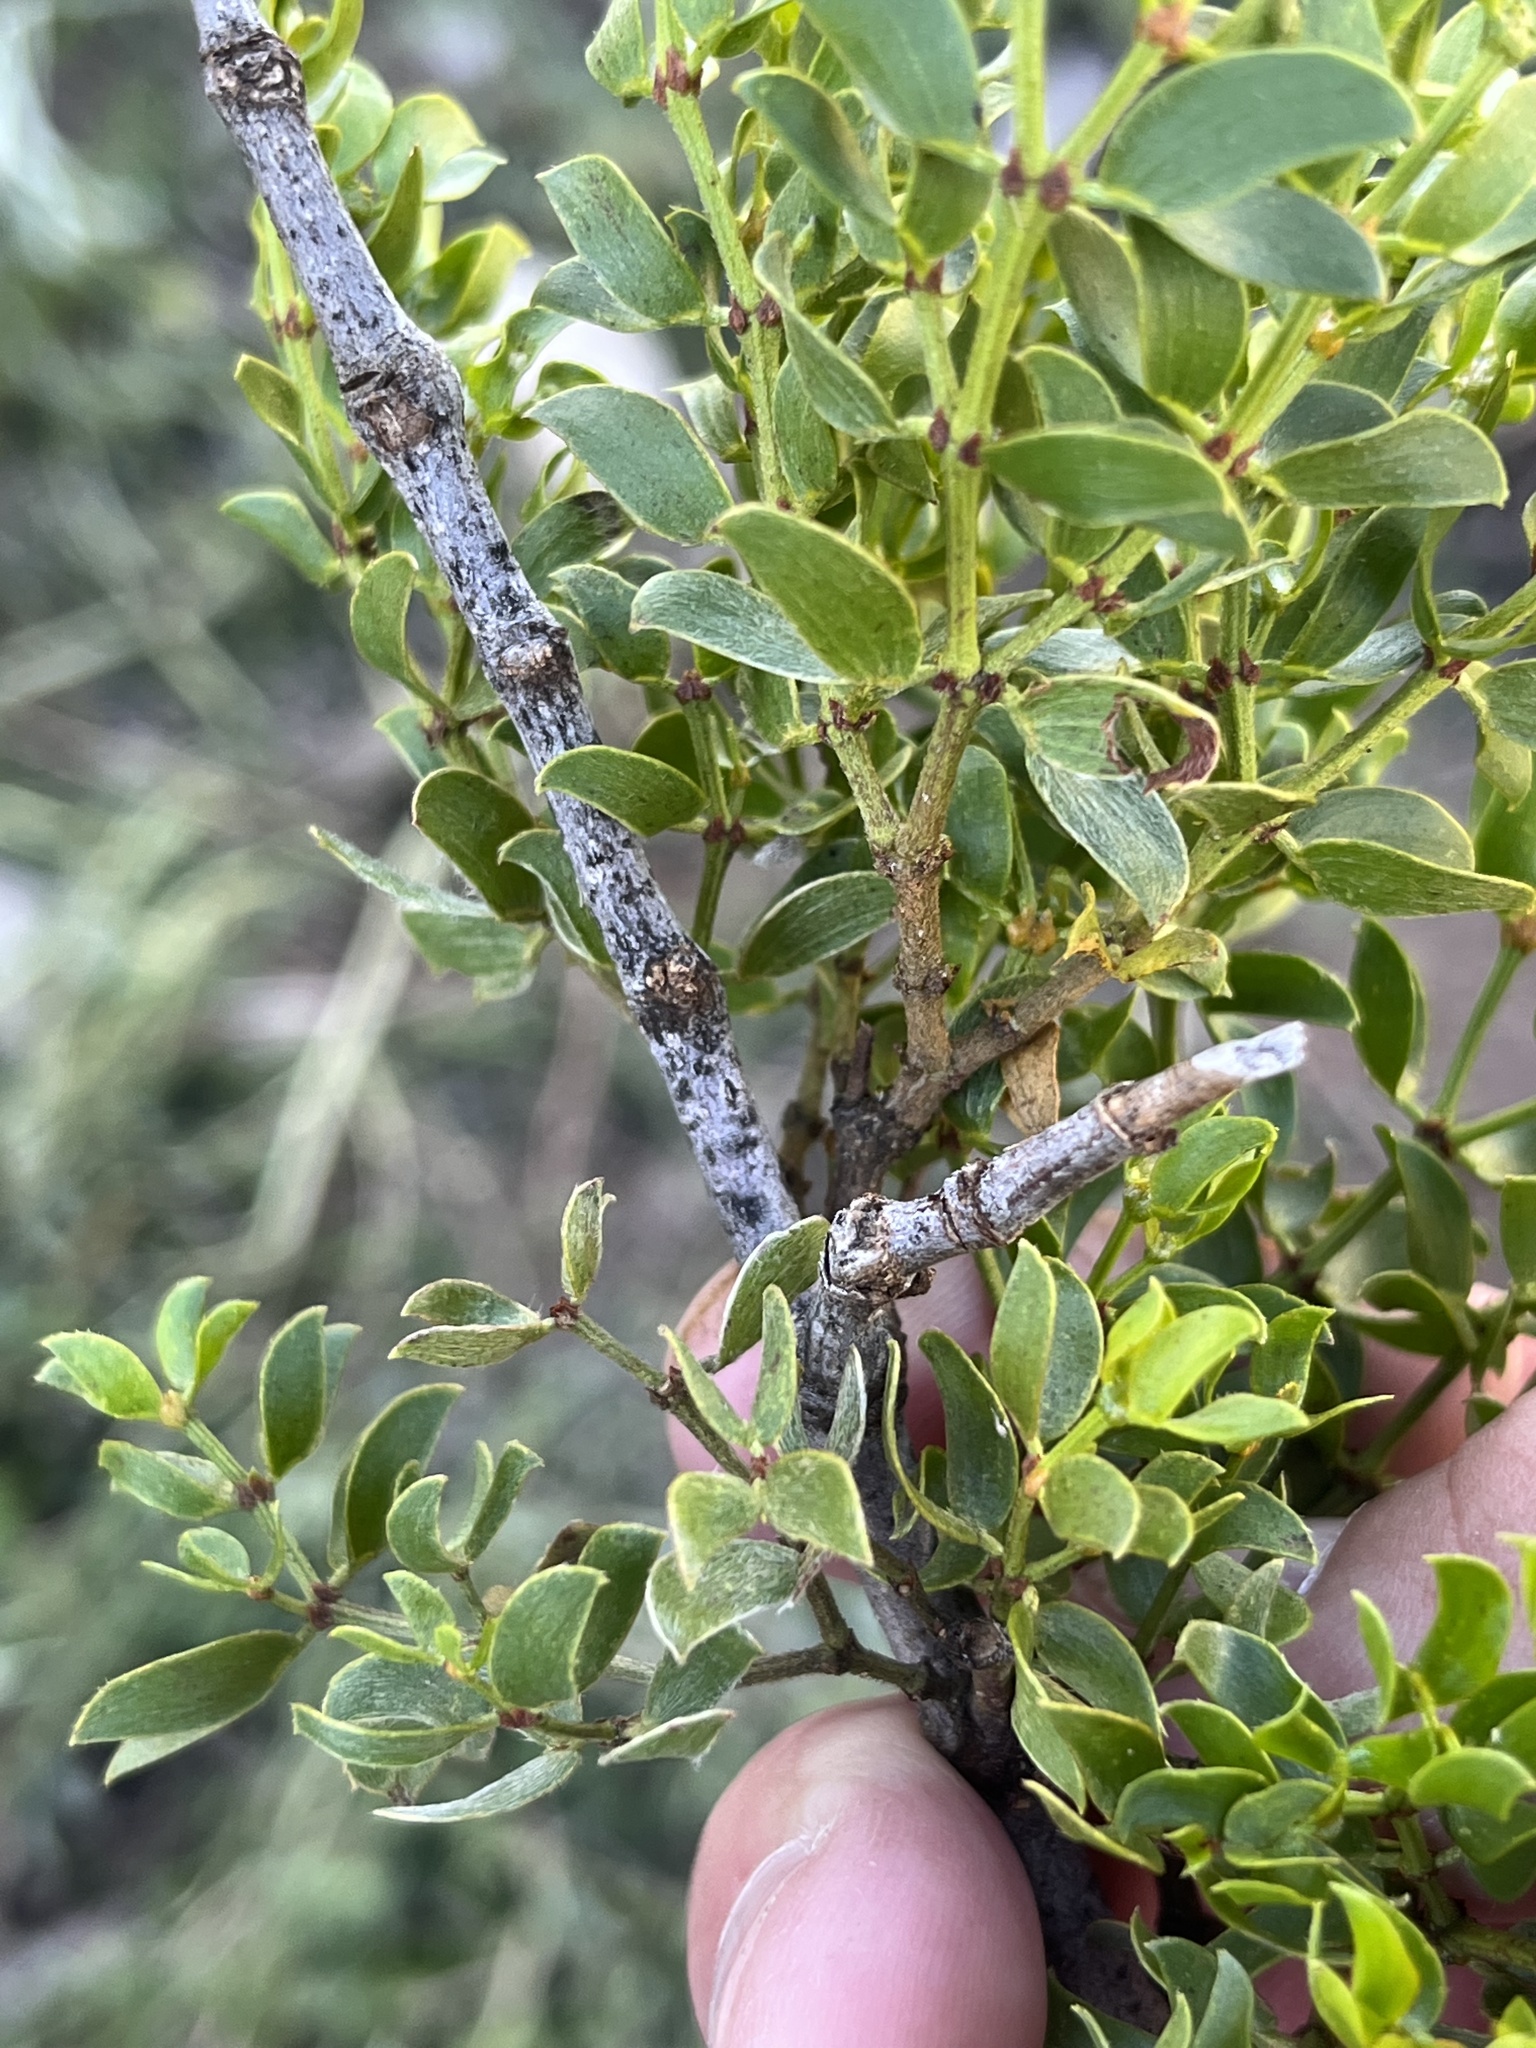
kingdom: Plantae
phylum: Tracheophyta
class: Magnoliopsida
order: Zygophyllales
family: Zygophyllaceae
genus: Larrea
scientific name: Larrea tridentata
